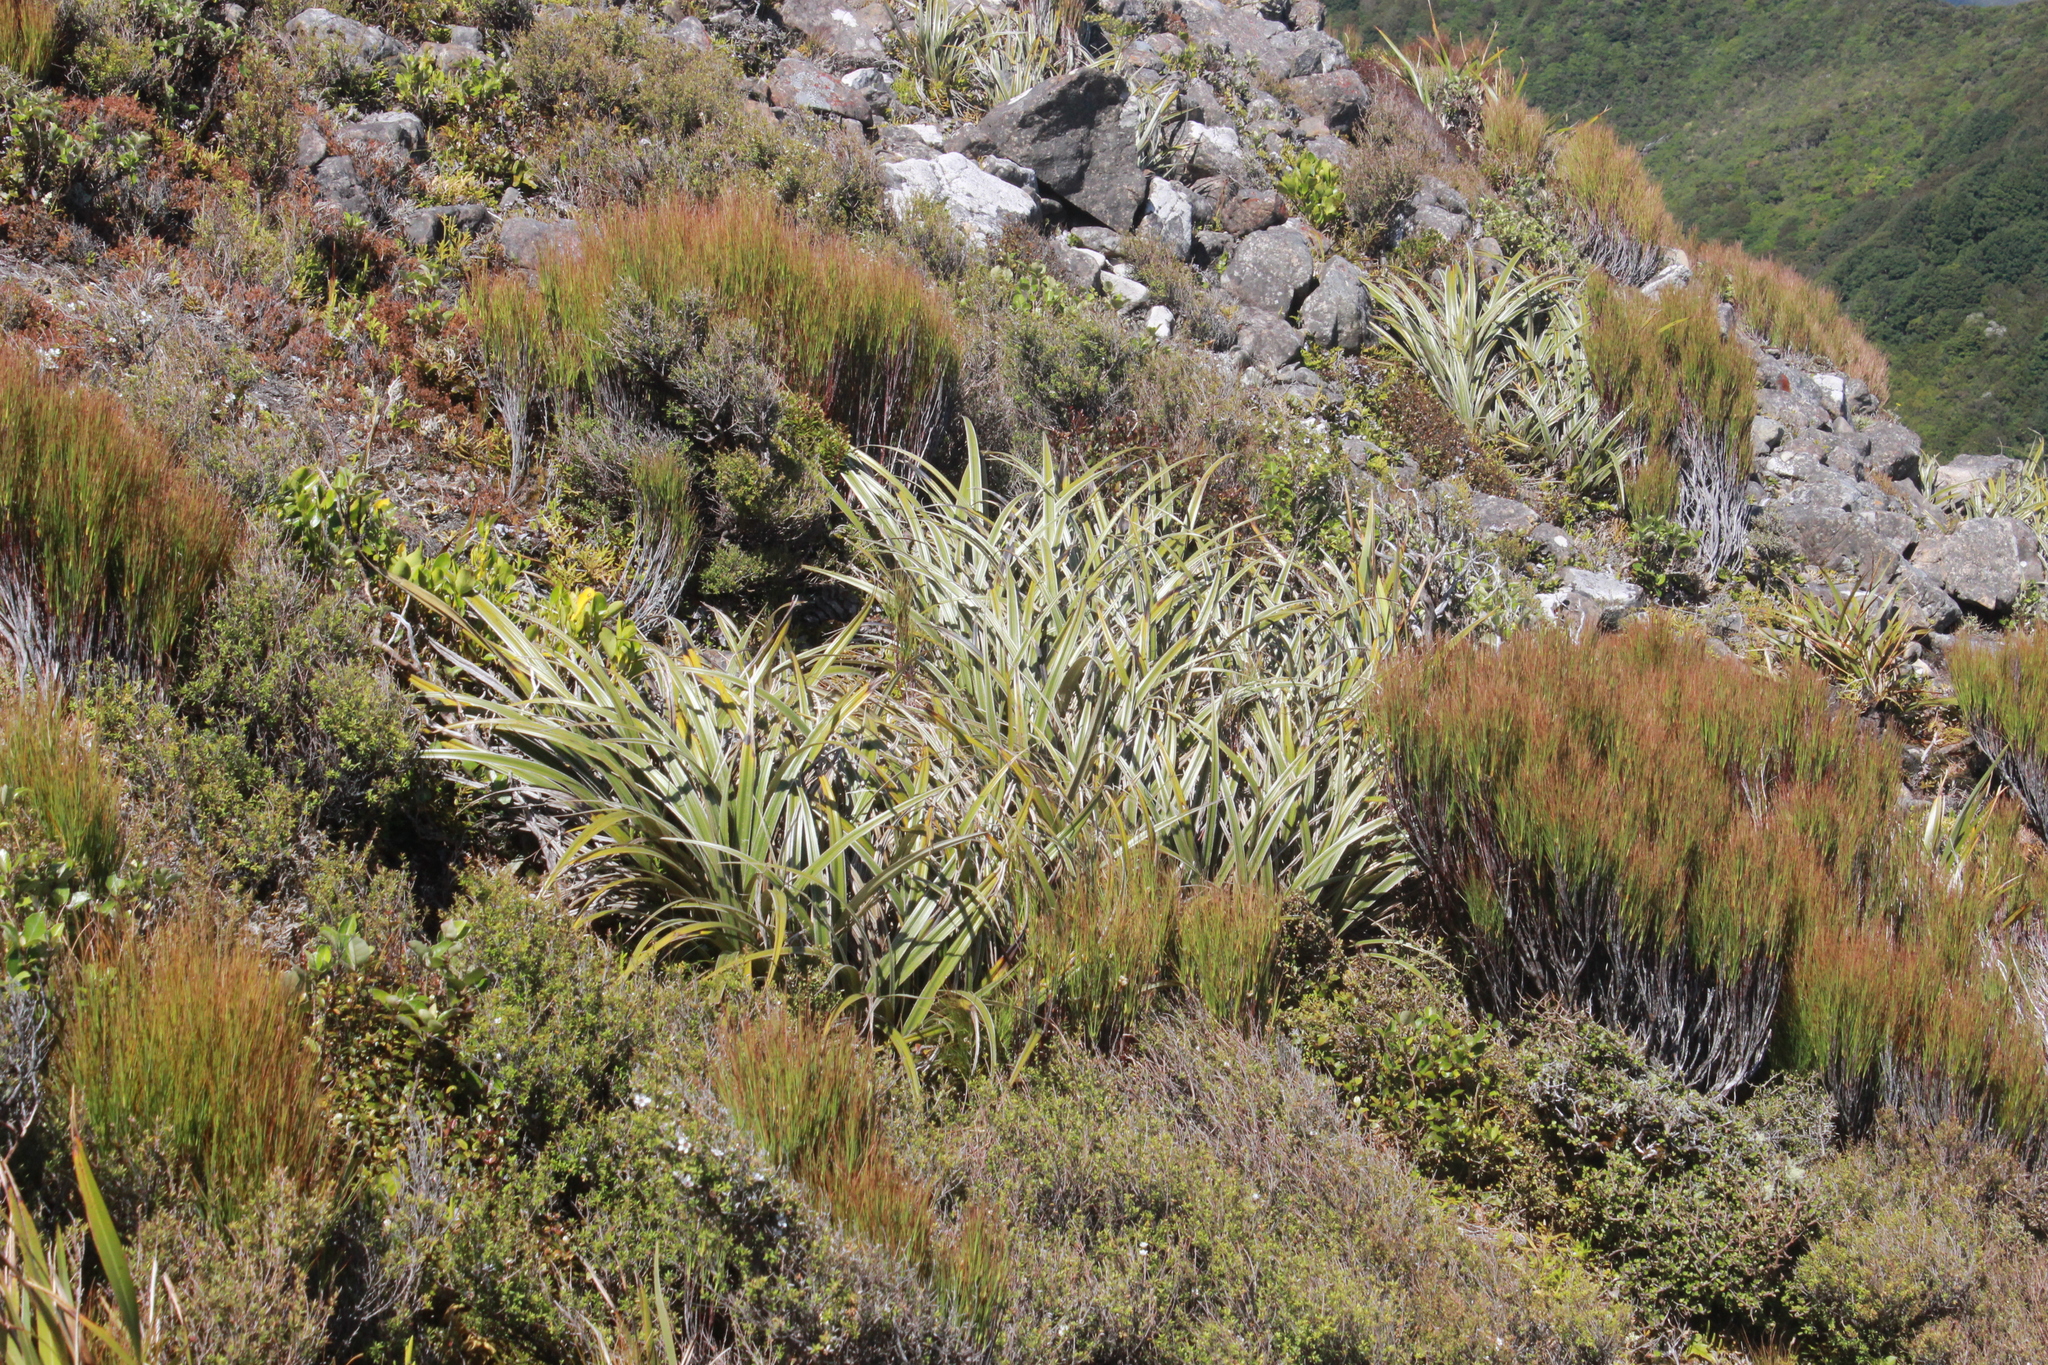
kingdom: Plantae
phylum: Tracheophyta
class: Liliopsida
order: Asparagales
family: Asteliaceae
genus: Astelia
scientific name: Astelia nervosa
